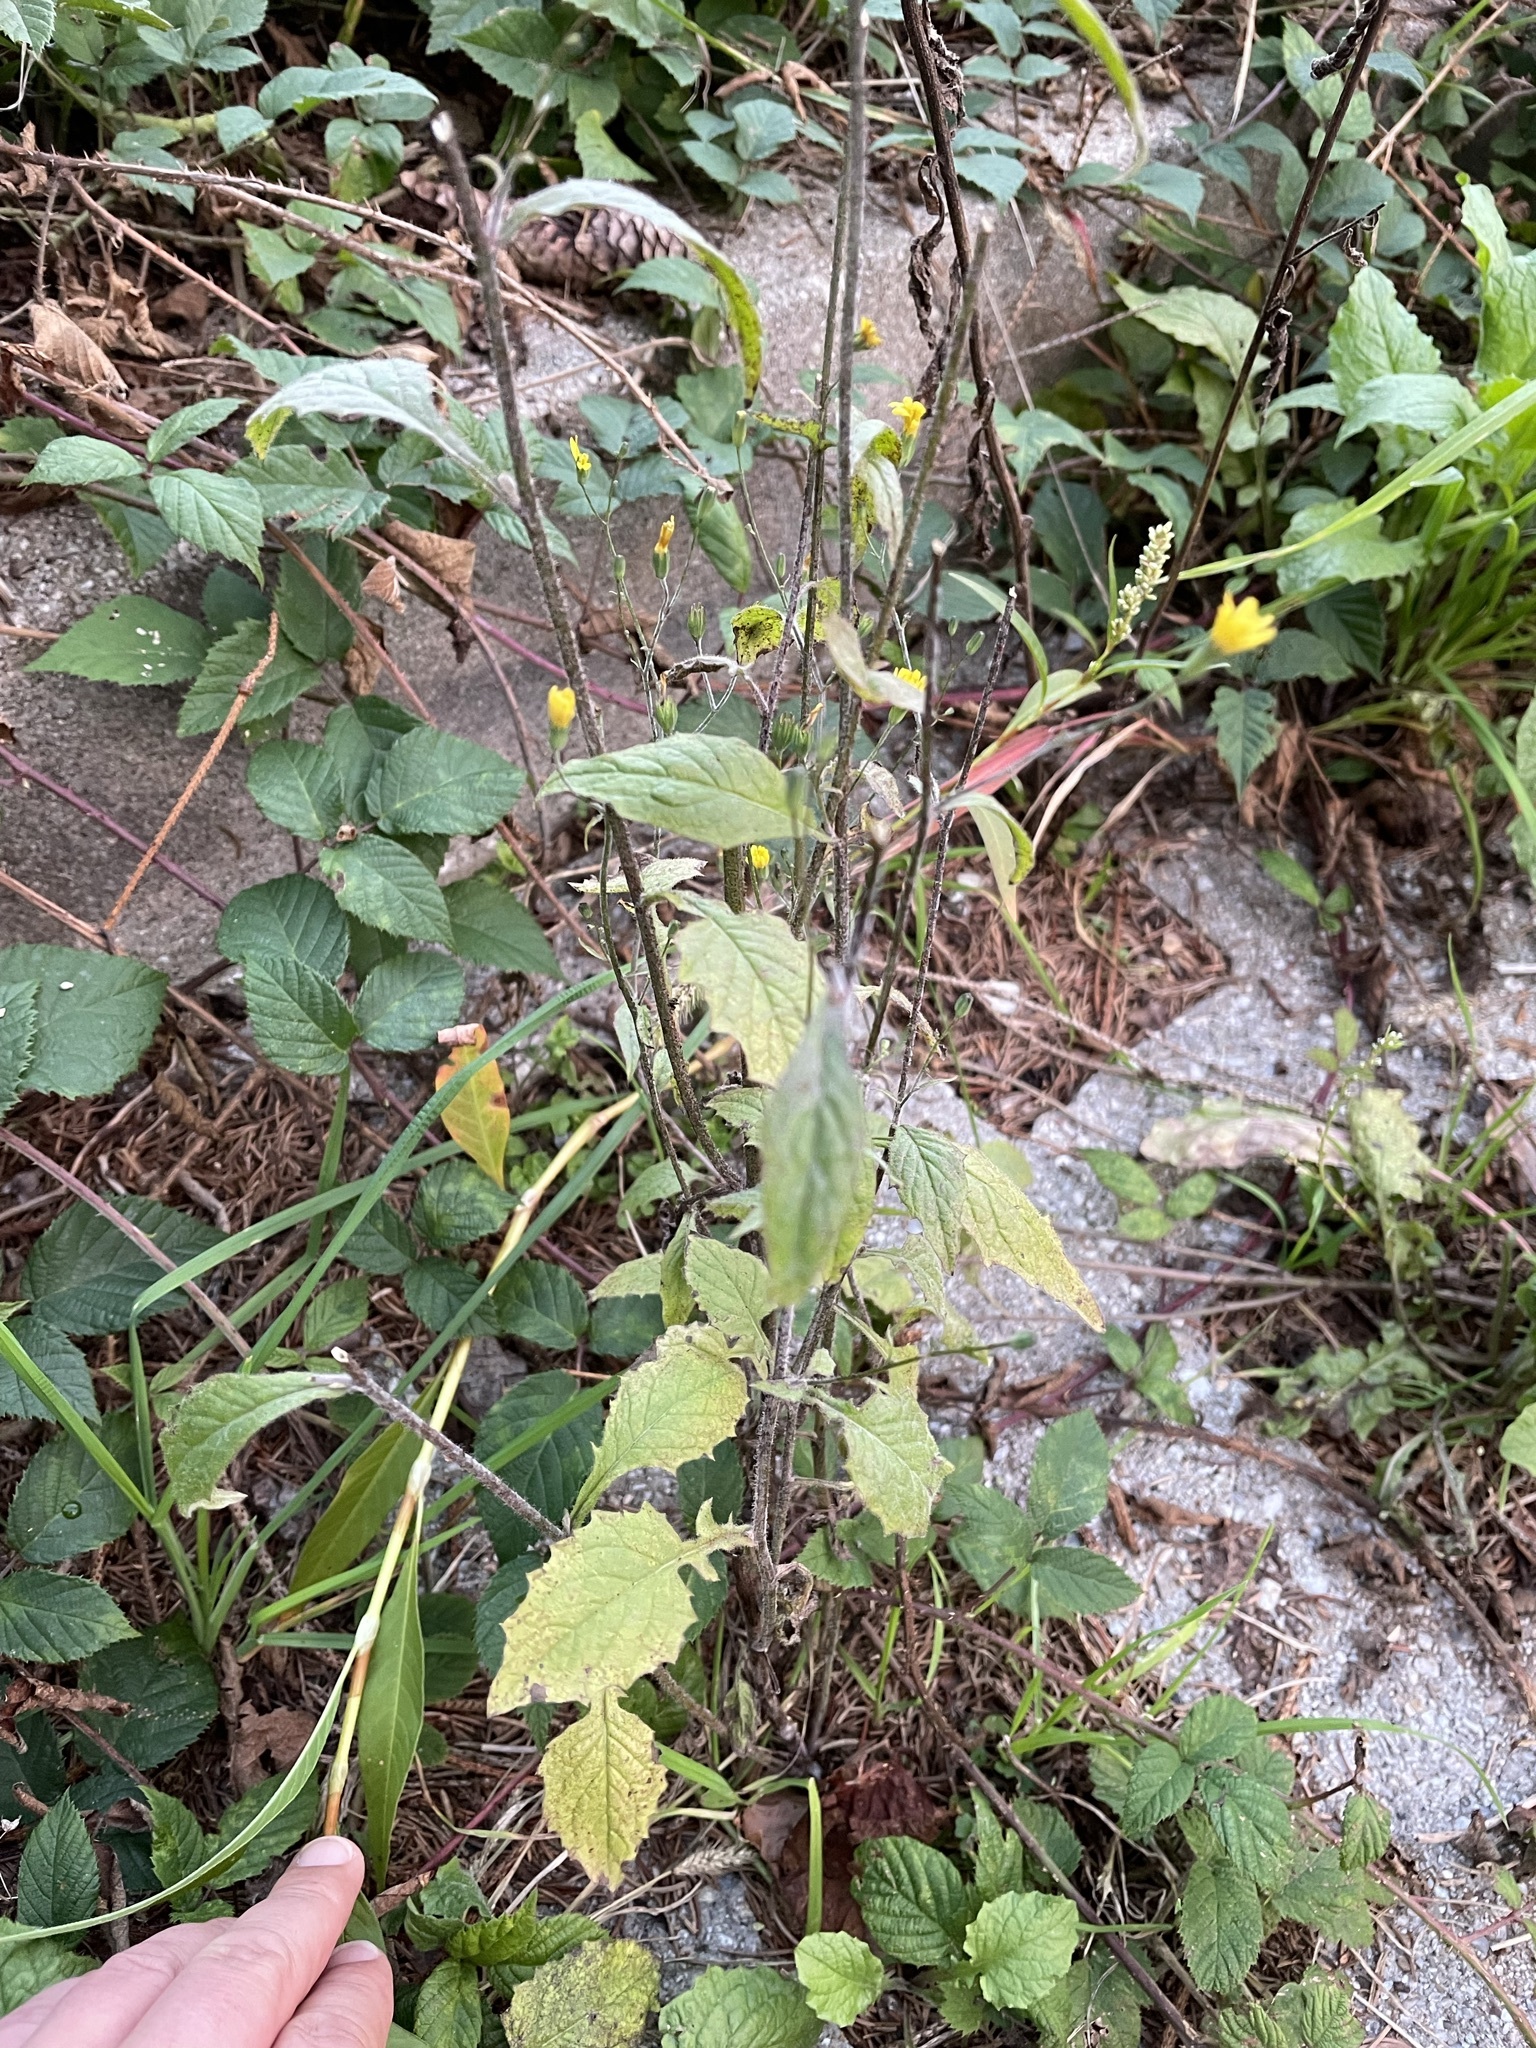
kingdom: Plantae
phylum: Tracheophyta
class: Magnoliopsida
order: Asterales
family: Asteraceae
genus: Lapsana
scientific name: Lapsana communis
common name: Nipplewort
